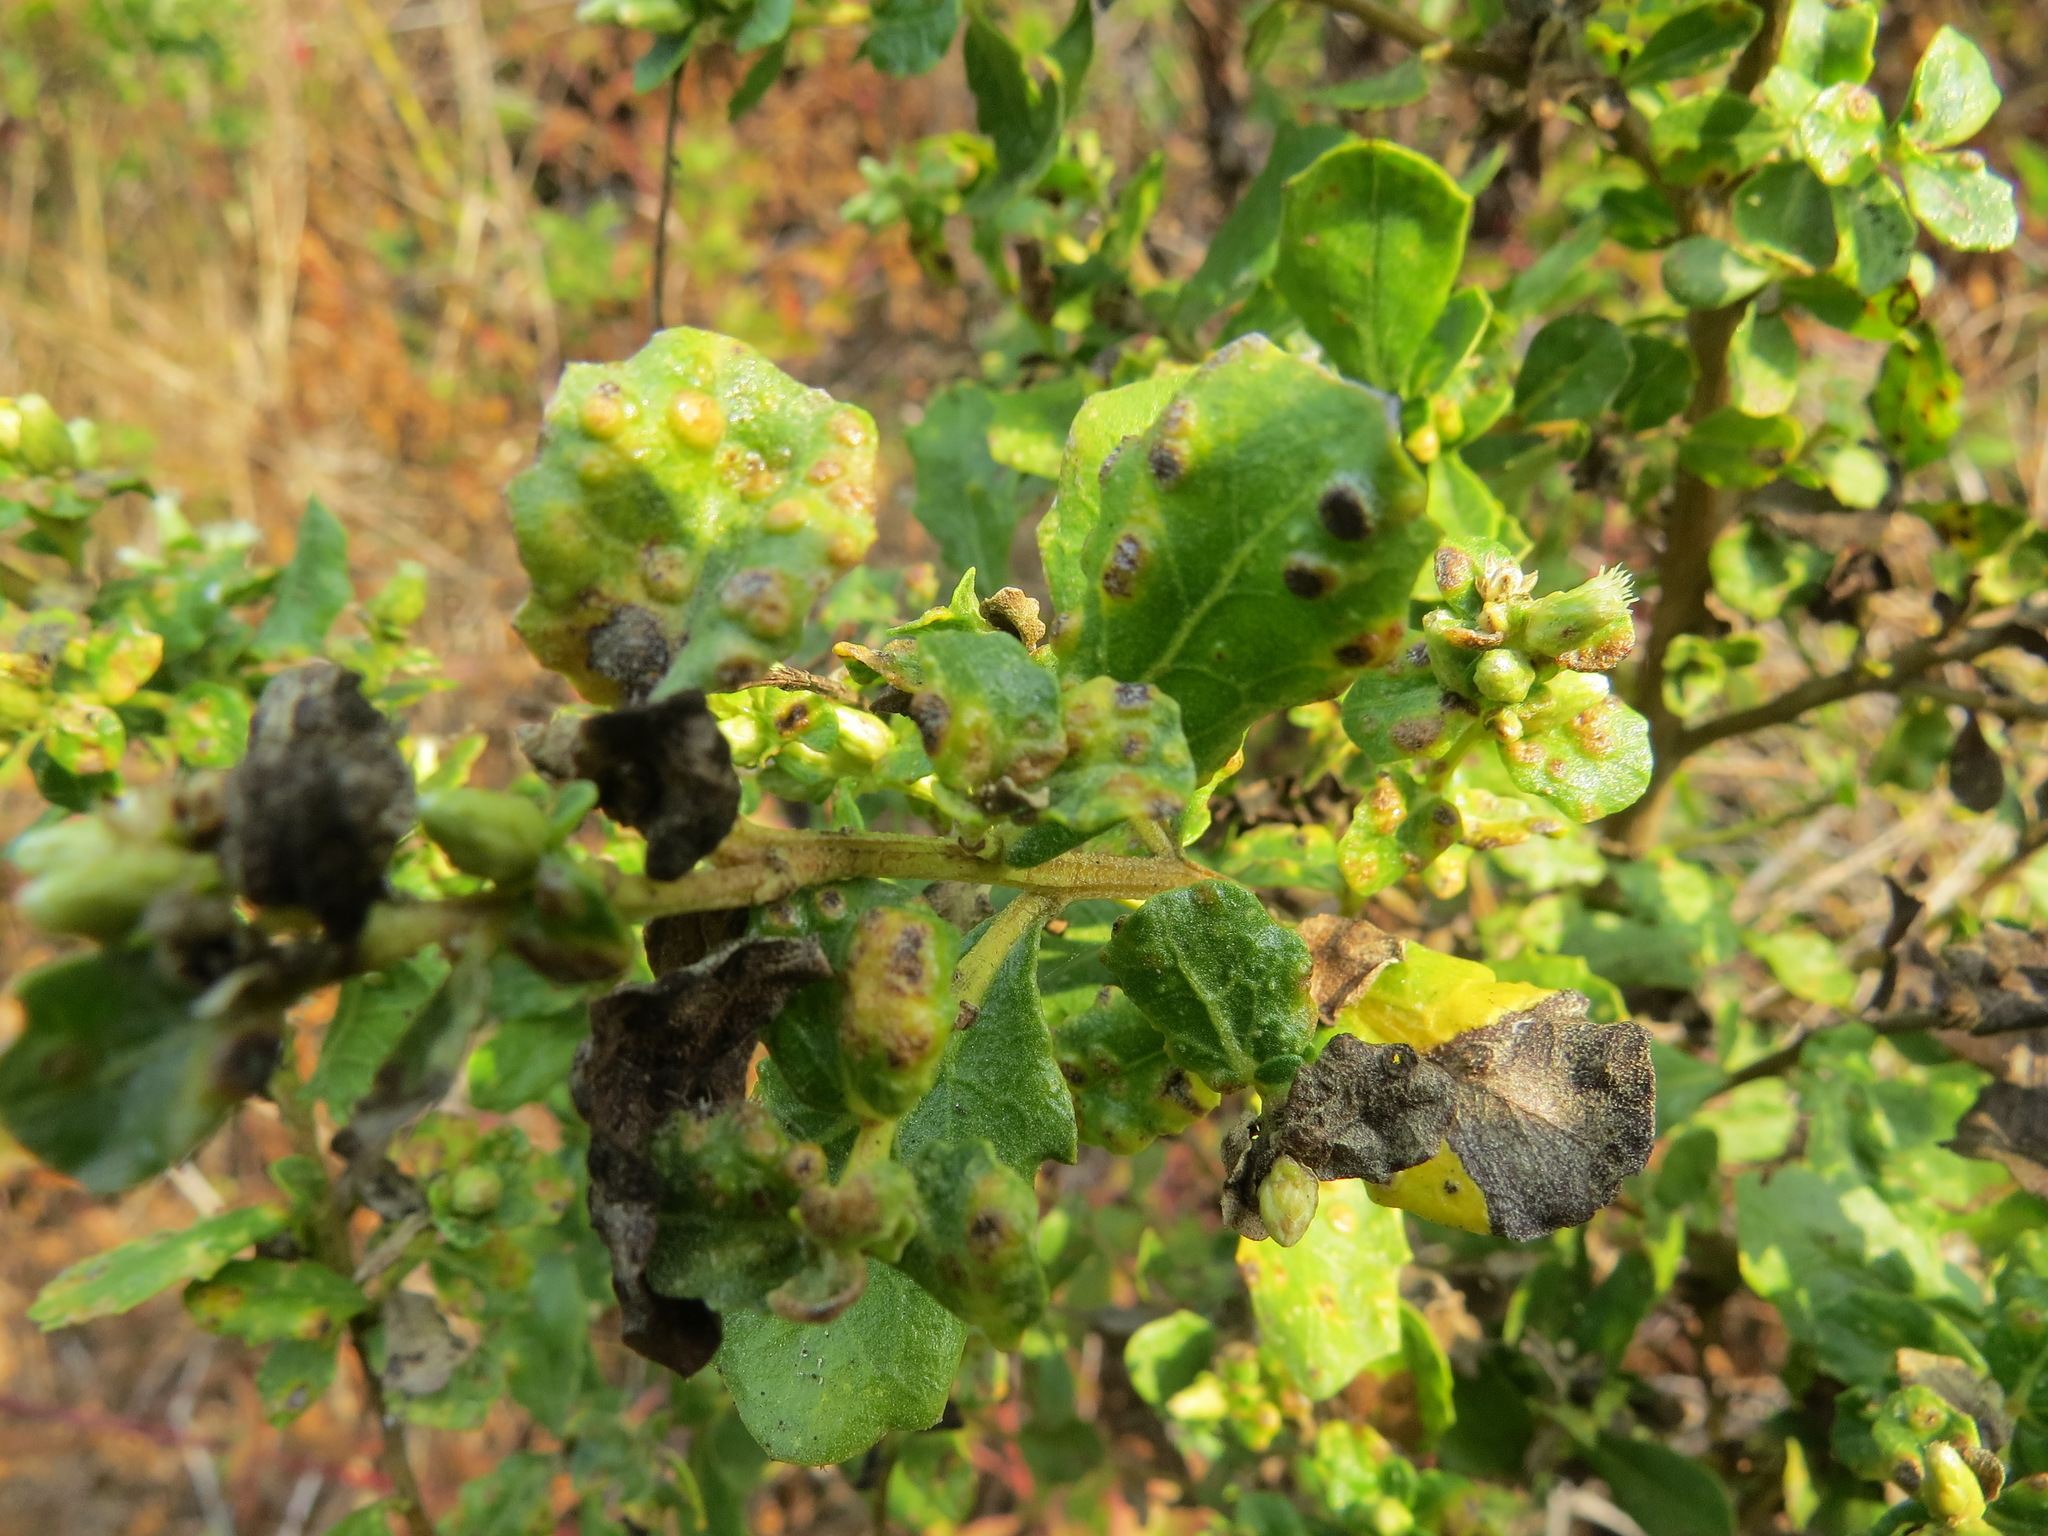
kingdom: Animalia
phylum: Arthropoda
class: Arachnida
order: Trombidiformes
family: Eriophyidae
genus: Aceria
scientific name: Aceria
